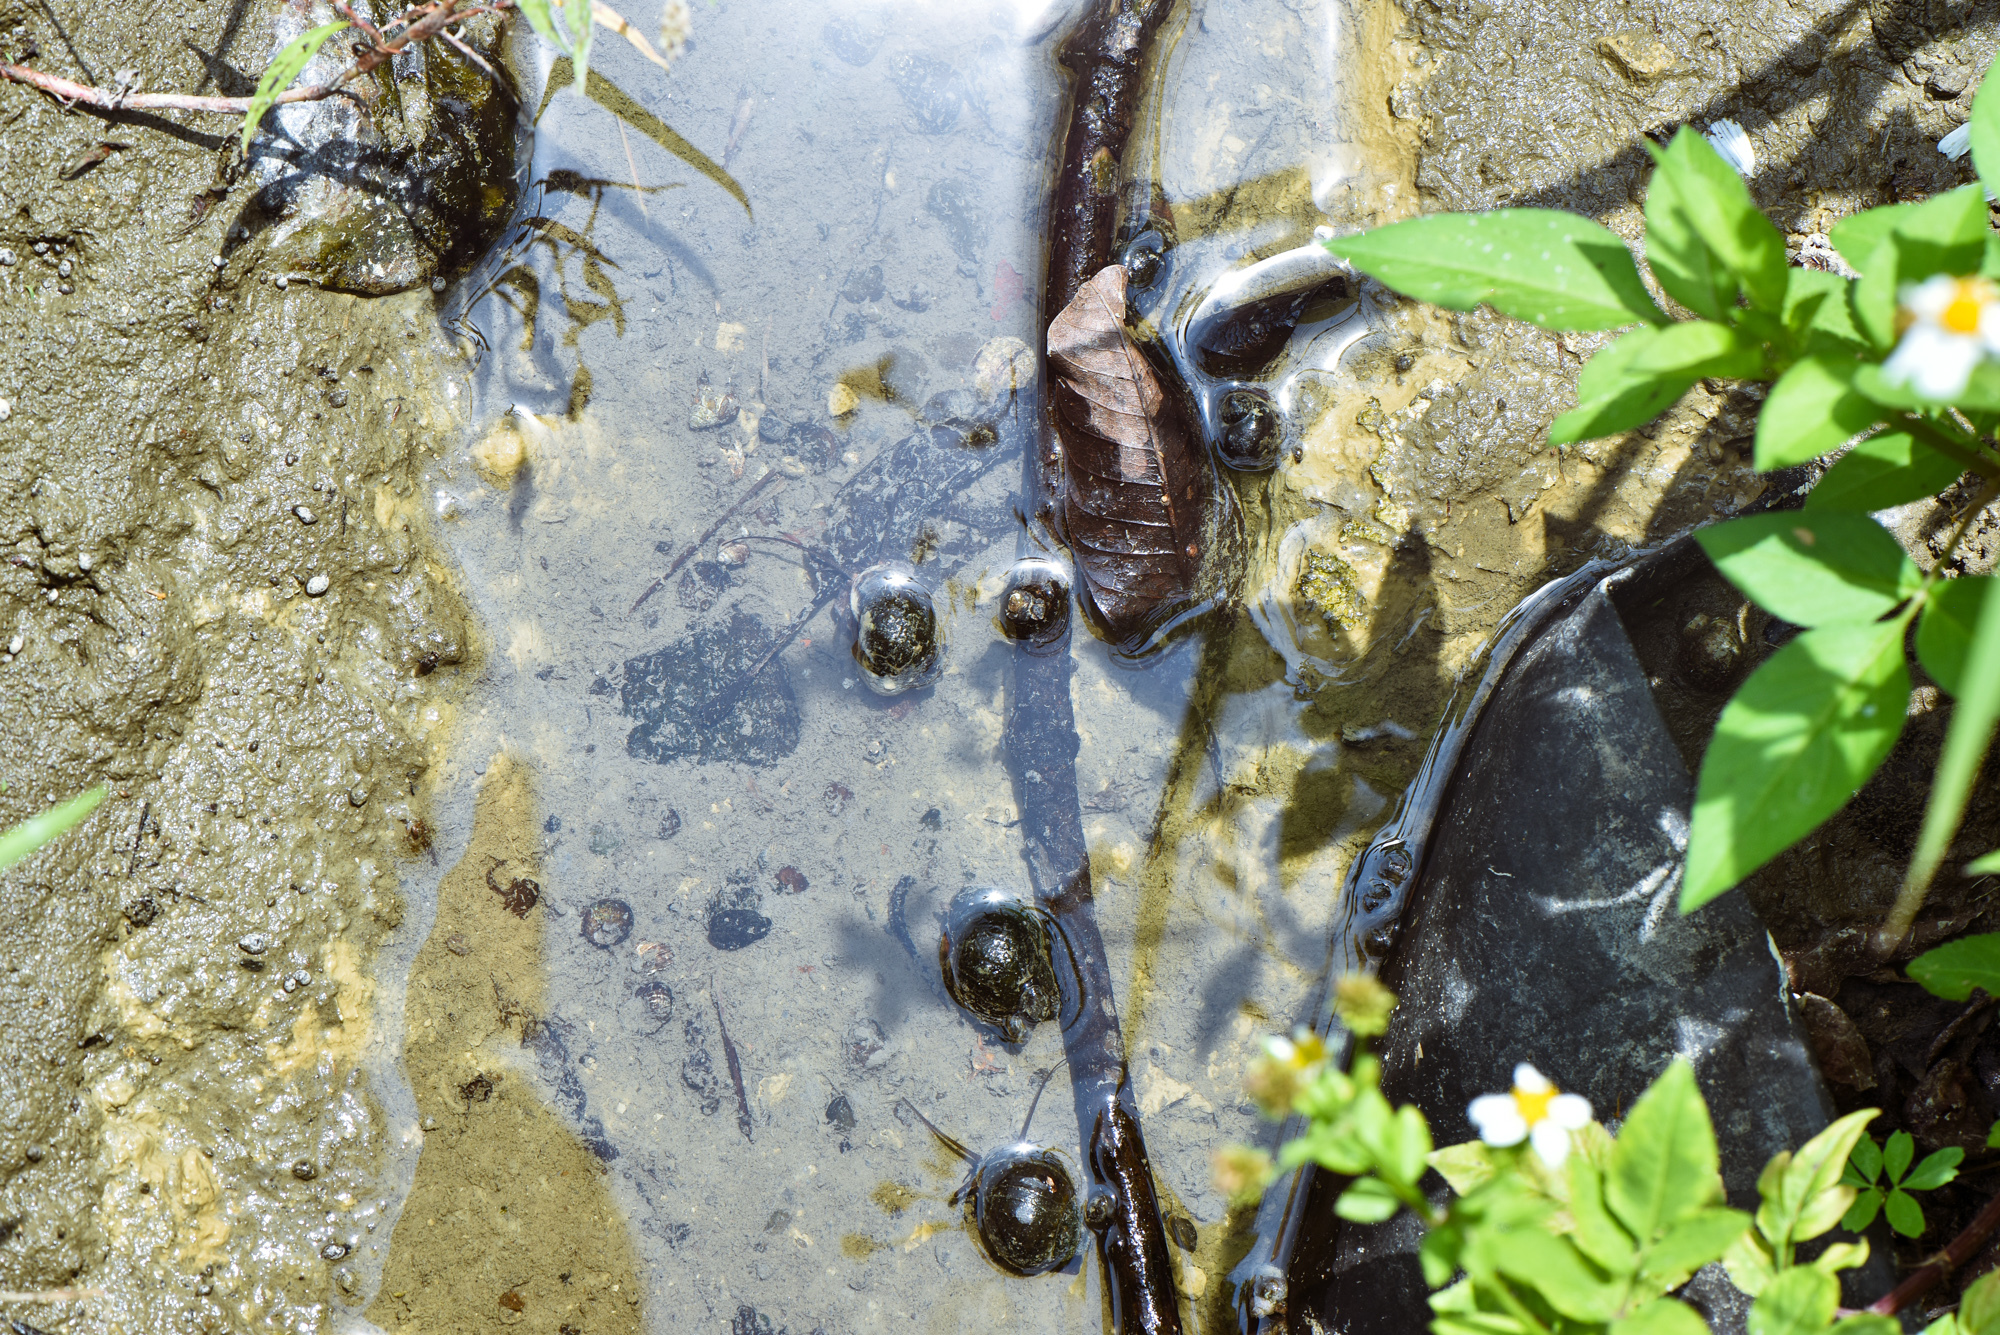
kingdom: Animalia
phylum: Mollusca
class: Gastropoda
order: Architaenioglossa
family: Ampullariidae
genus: Pomacea
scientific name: Pomacea canaliculata
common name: Channeled applesnail
